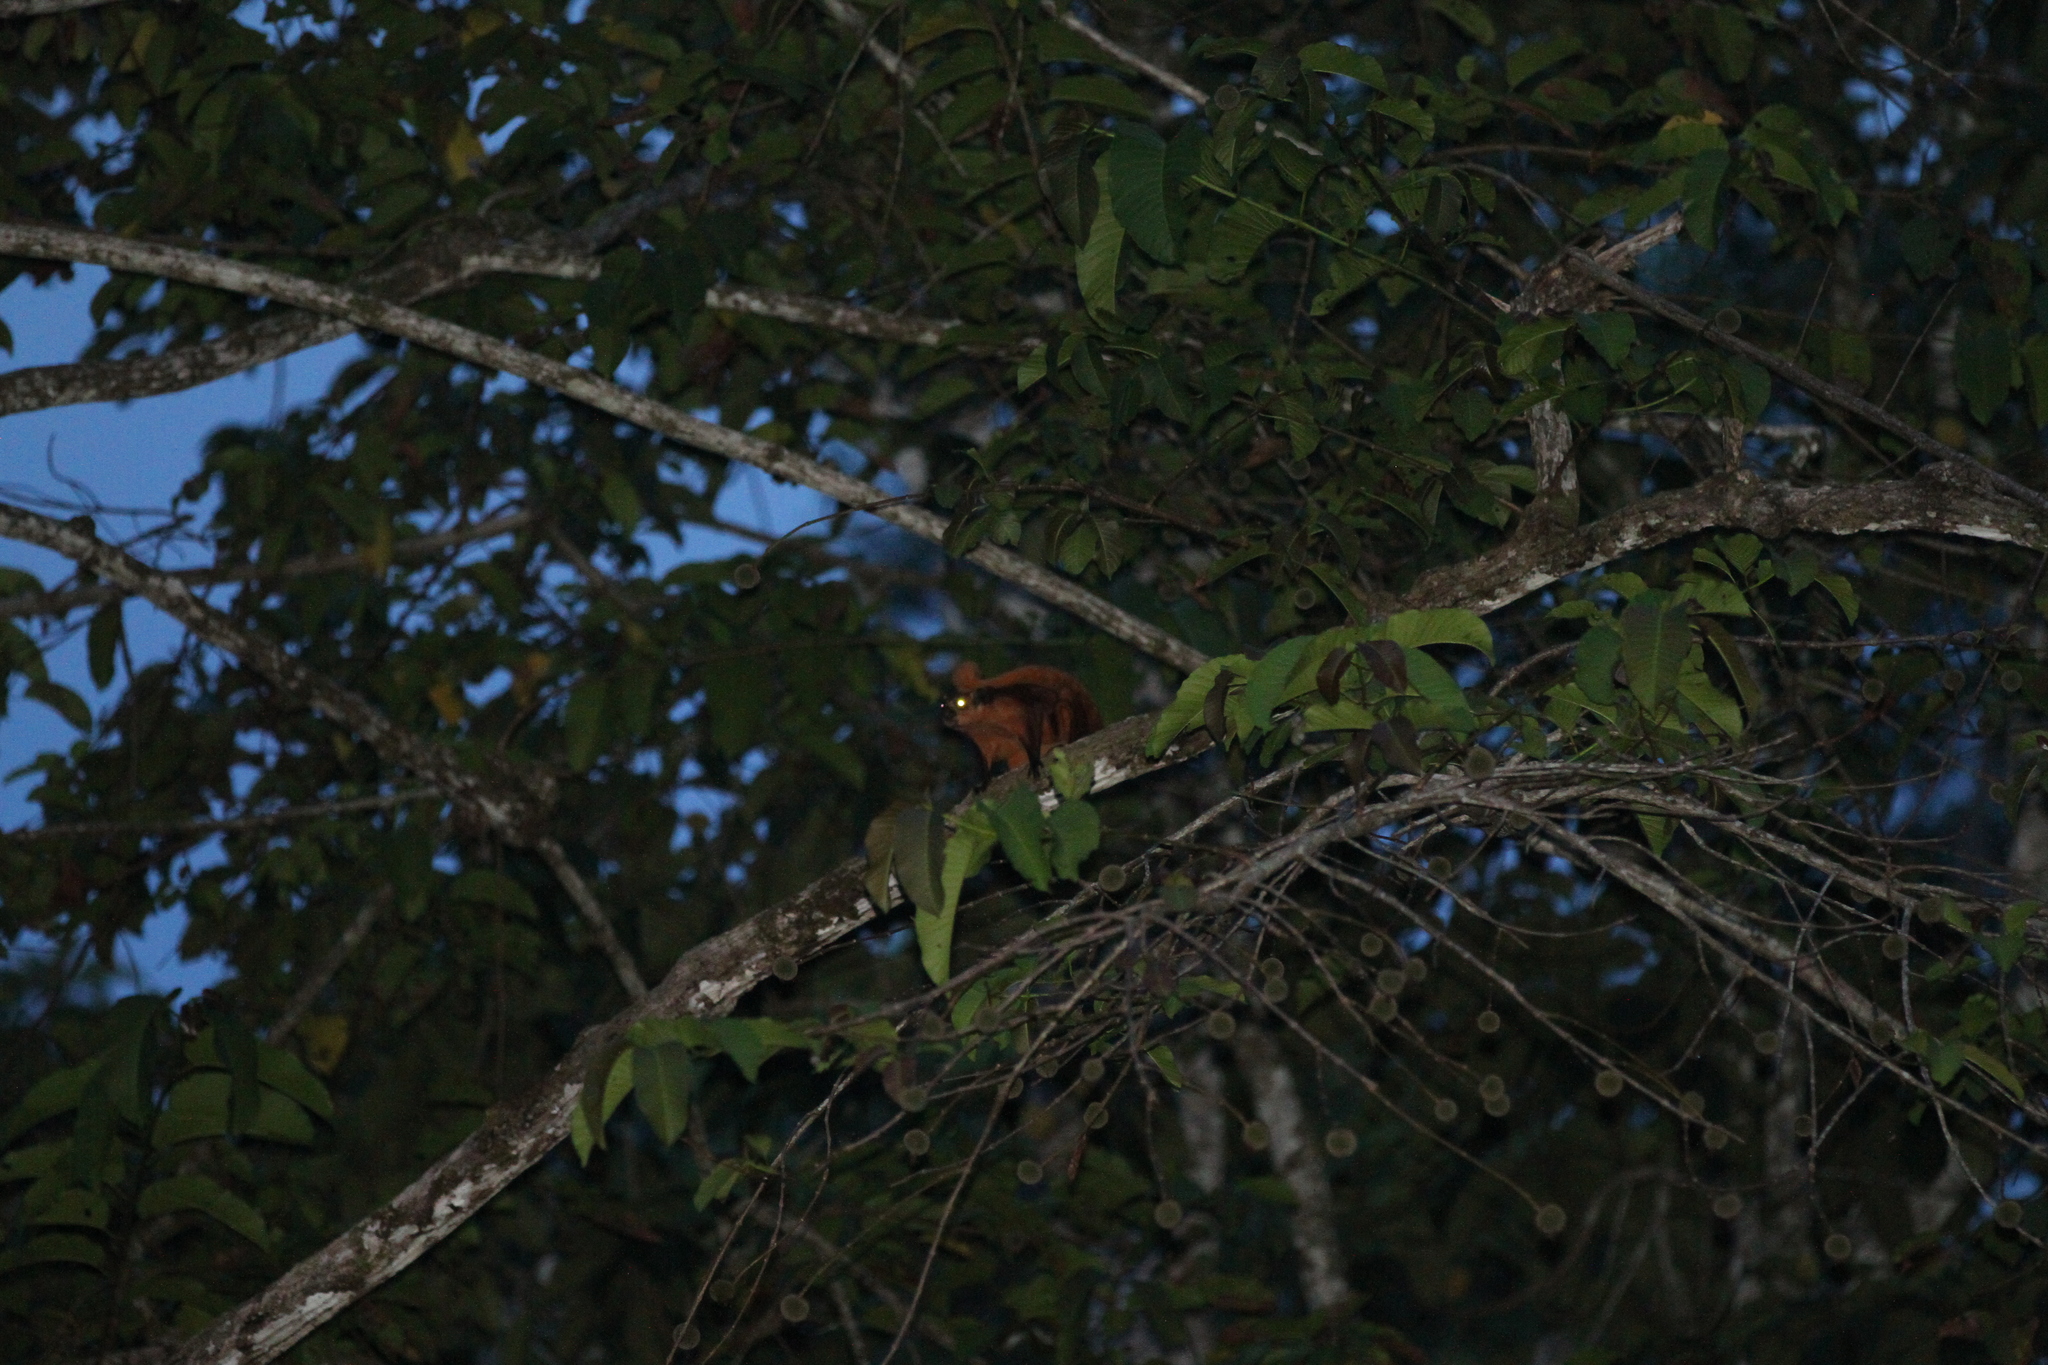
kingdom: Animalia
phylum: Chordata
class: Mammalia
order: Rodentia
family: Sciuridae
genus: Petaurista
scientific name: Petaurista petaurista
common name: Red giant flying squirrel
